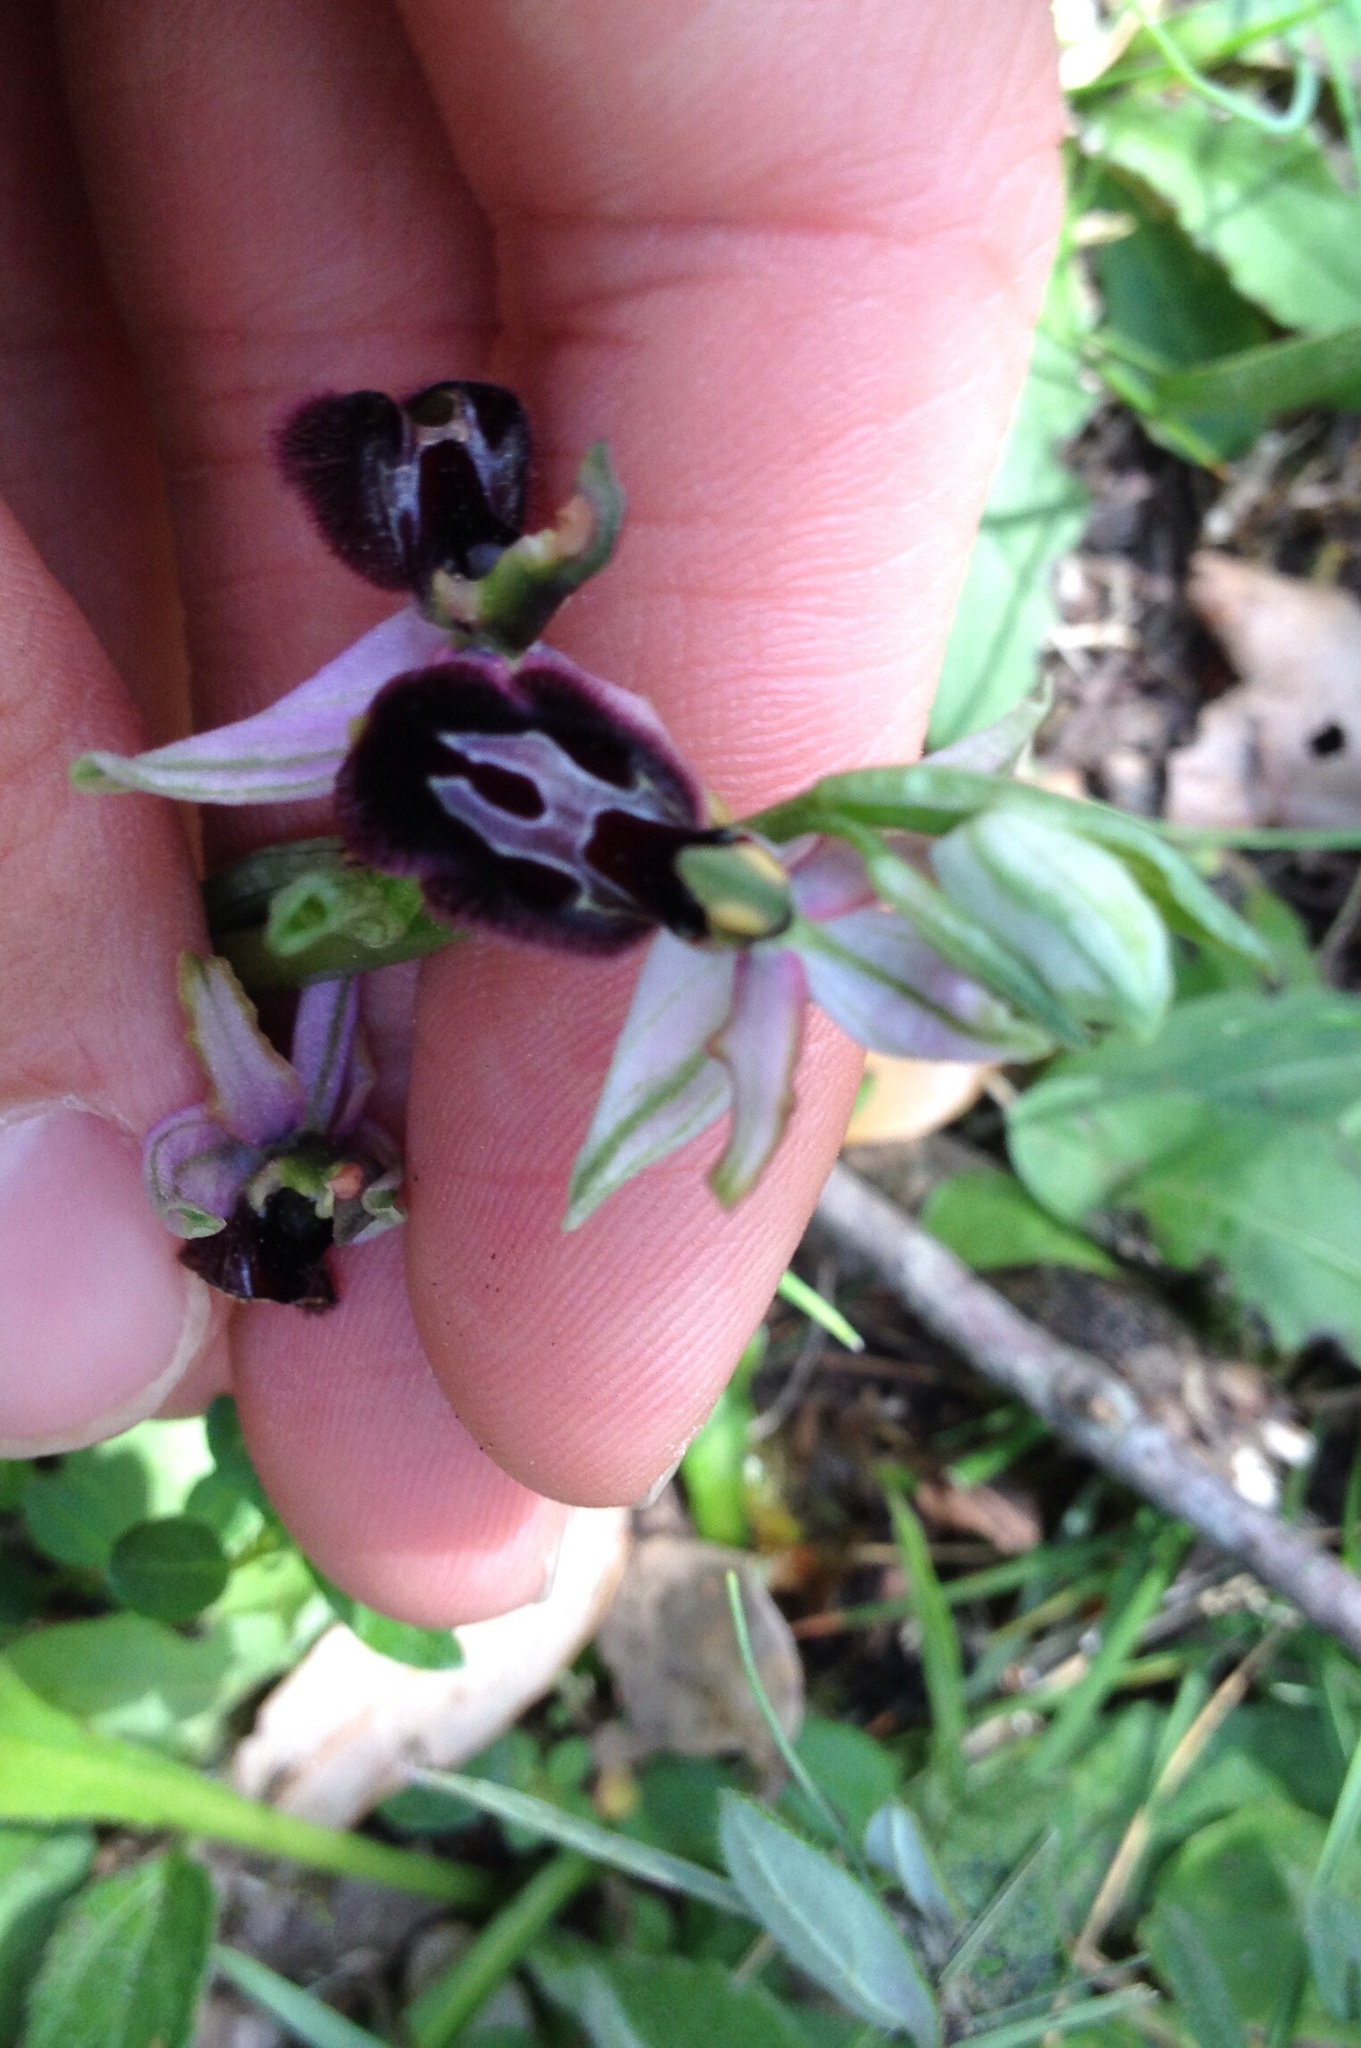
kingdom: Plantae
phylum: Tracheophyta
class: Liliopsida
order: Asparagales
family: Orchidaceae
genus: Ophrys
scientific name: Ophrys flavicans
